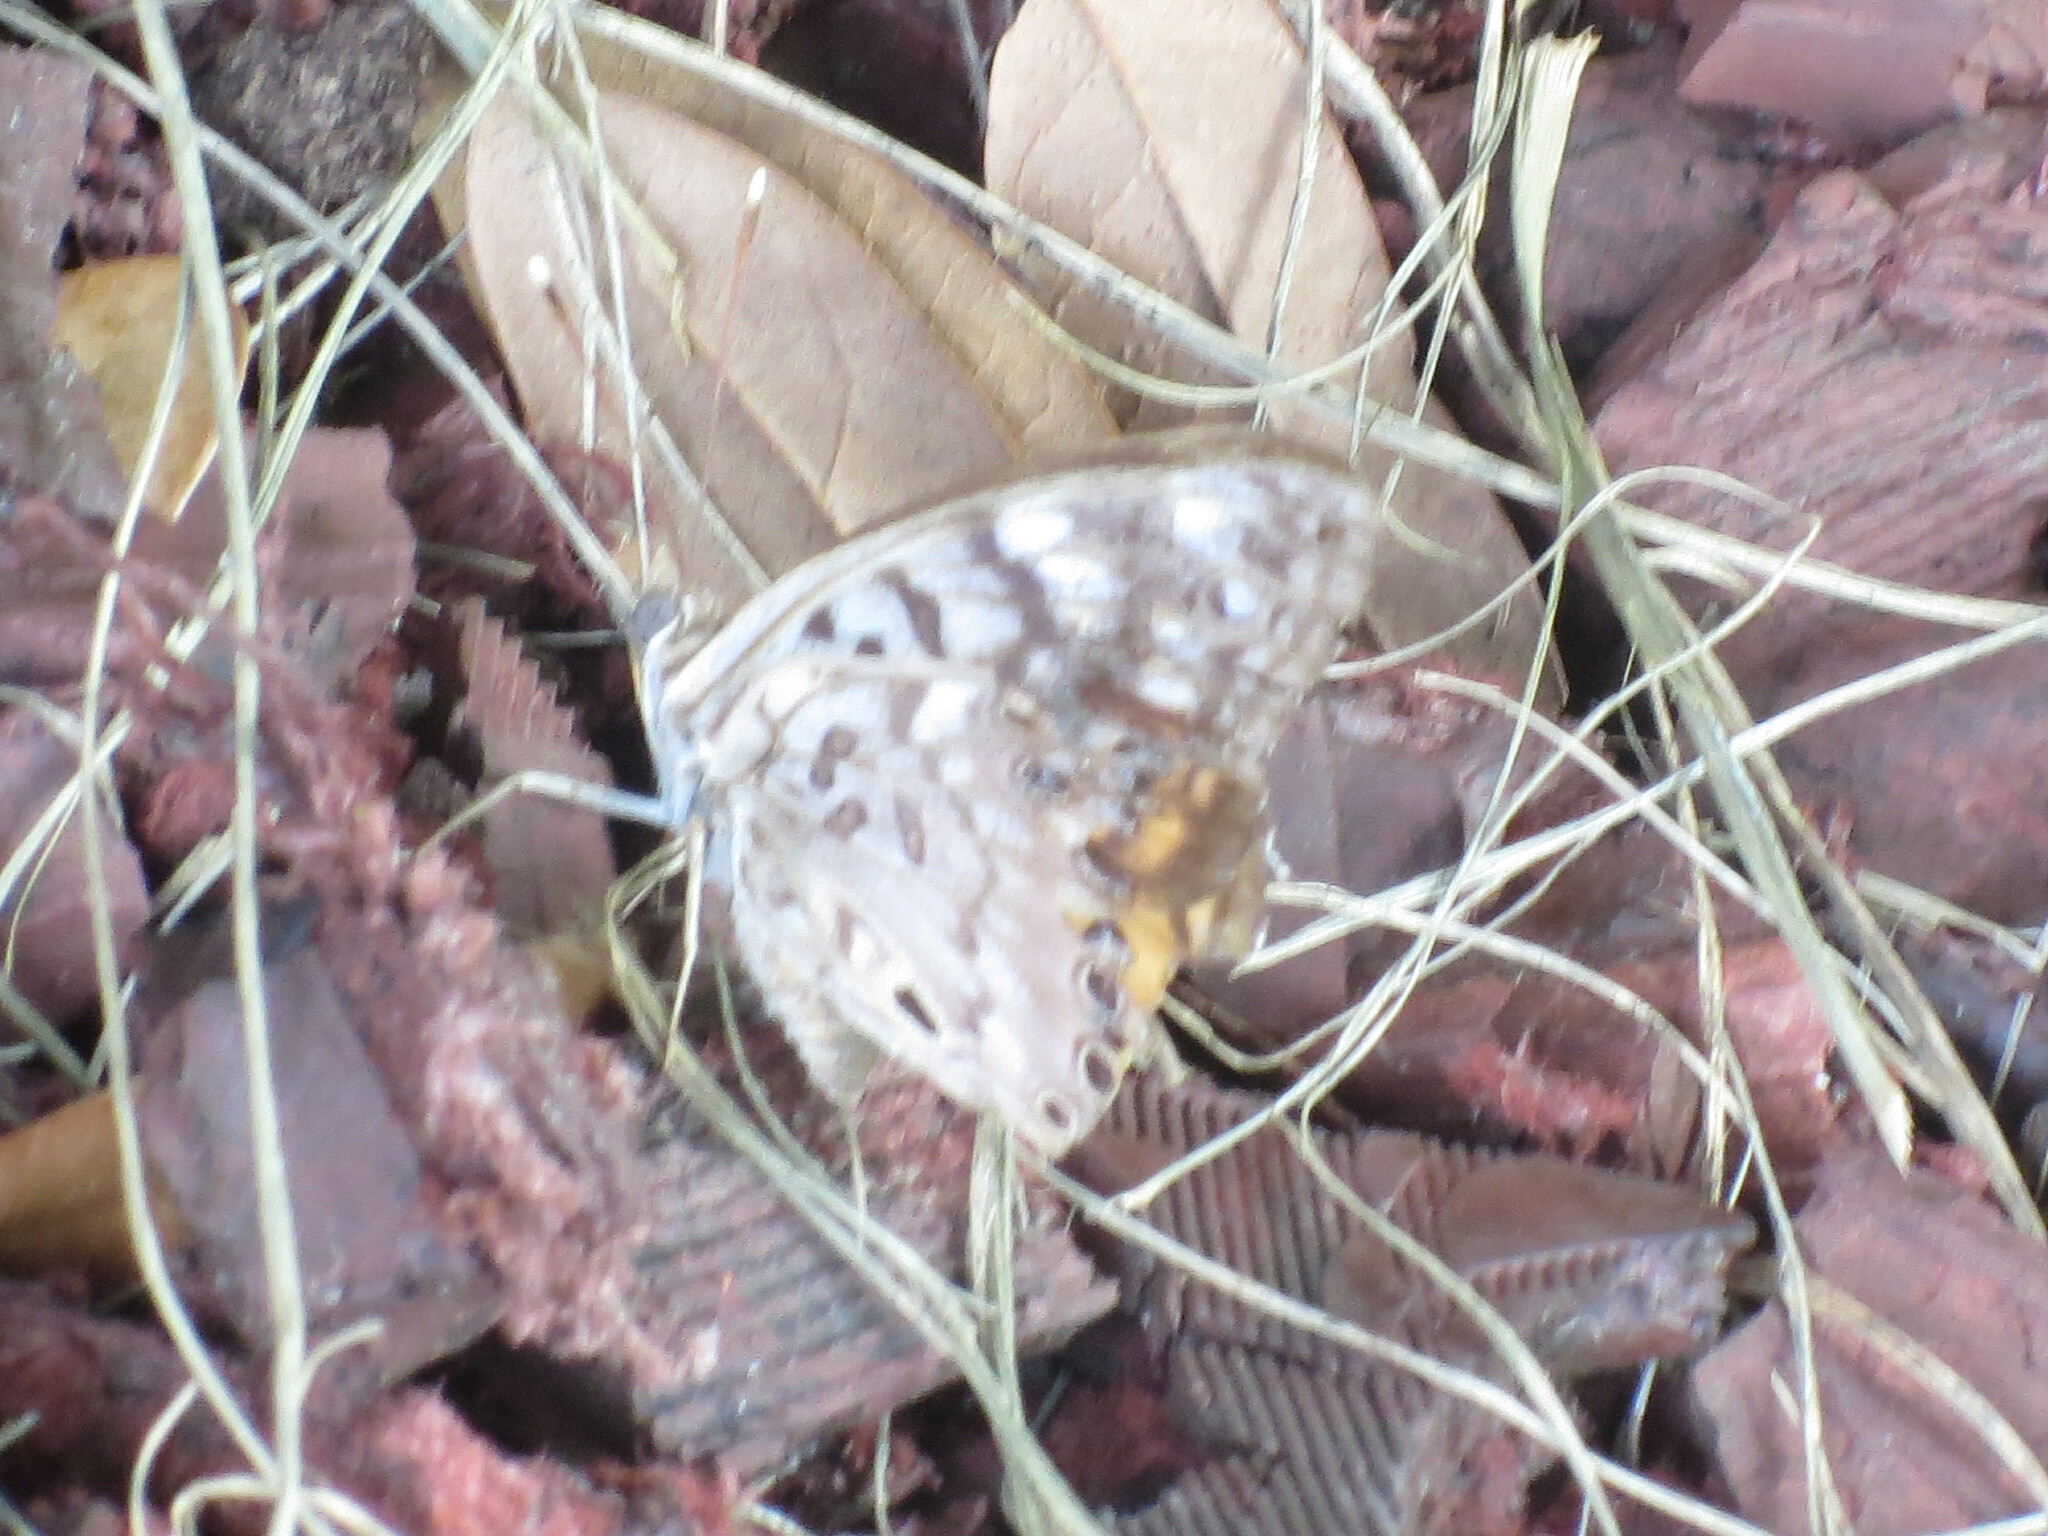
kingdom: Animalia
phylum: Arthropoda
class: Insecta
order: Lepidoptera
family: Nymphalidae
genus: Asterocampa
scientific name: Asterocampa celtis
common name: Hackberry emperor
